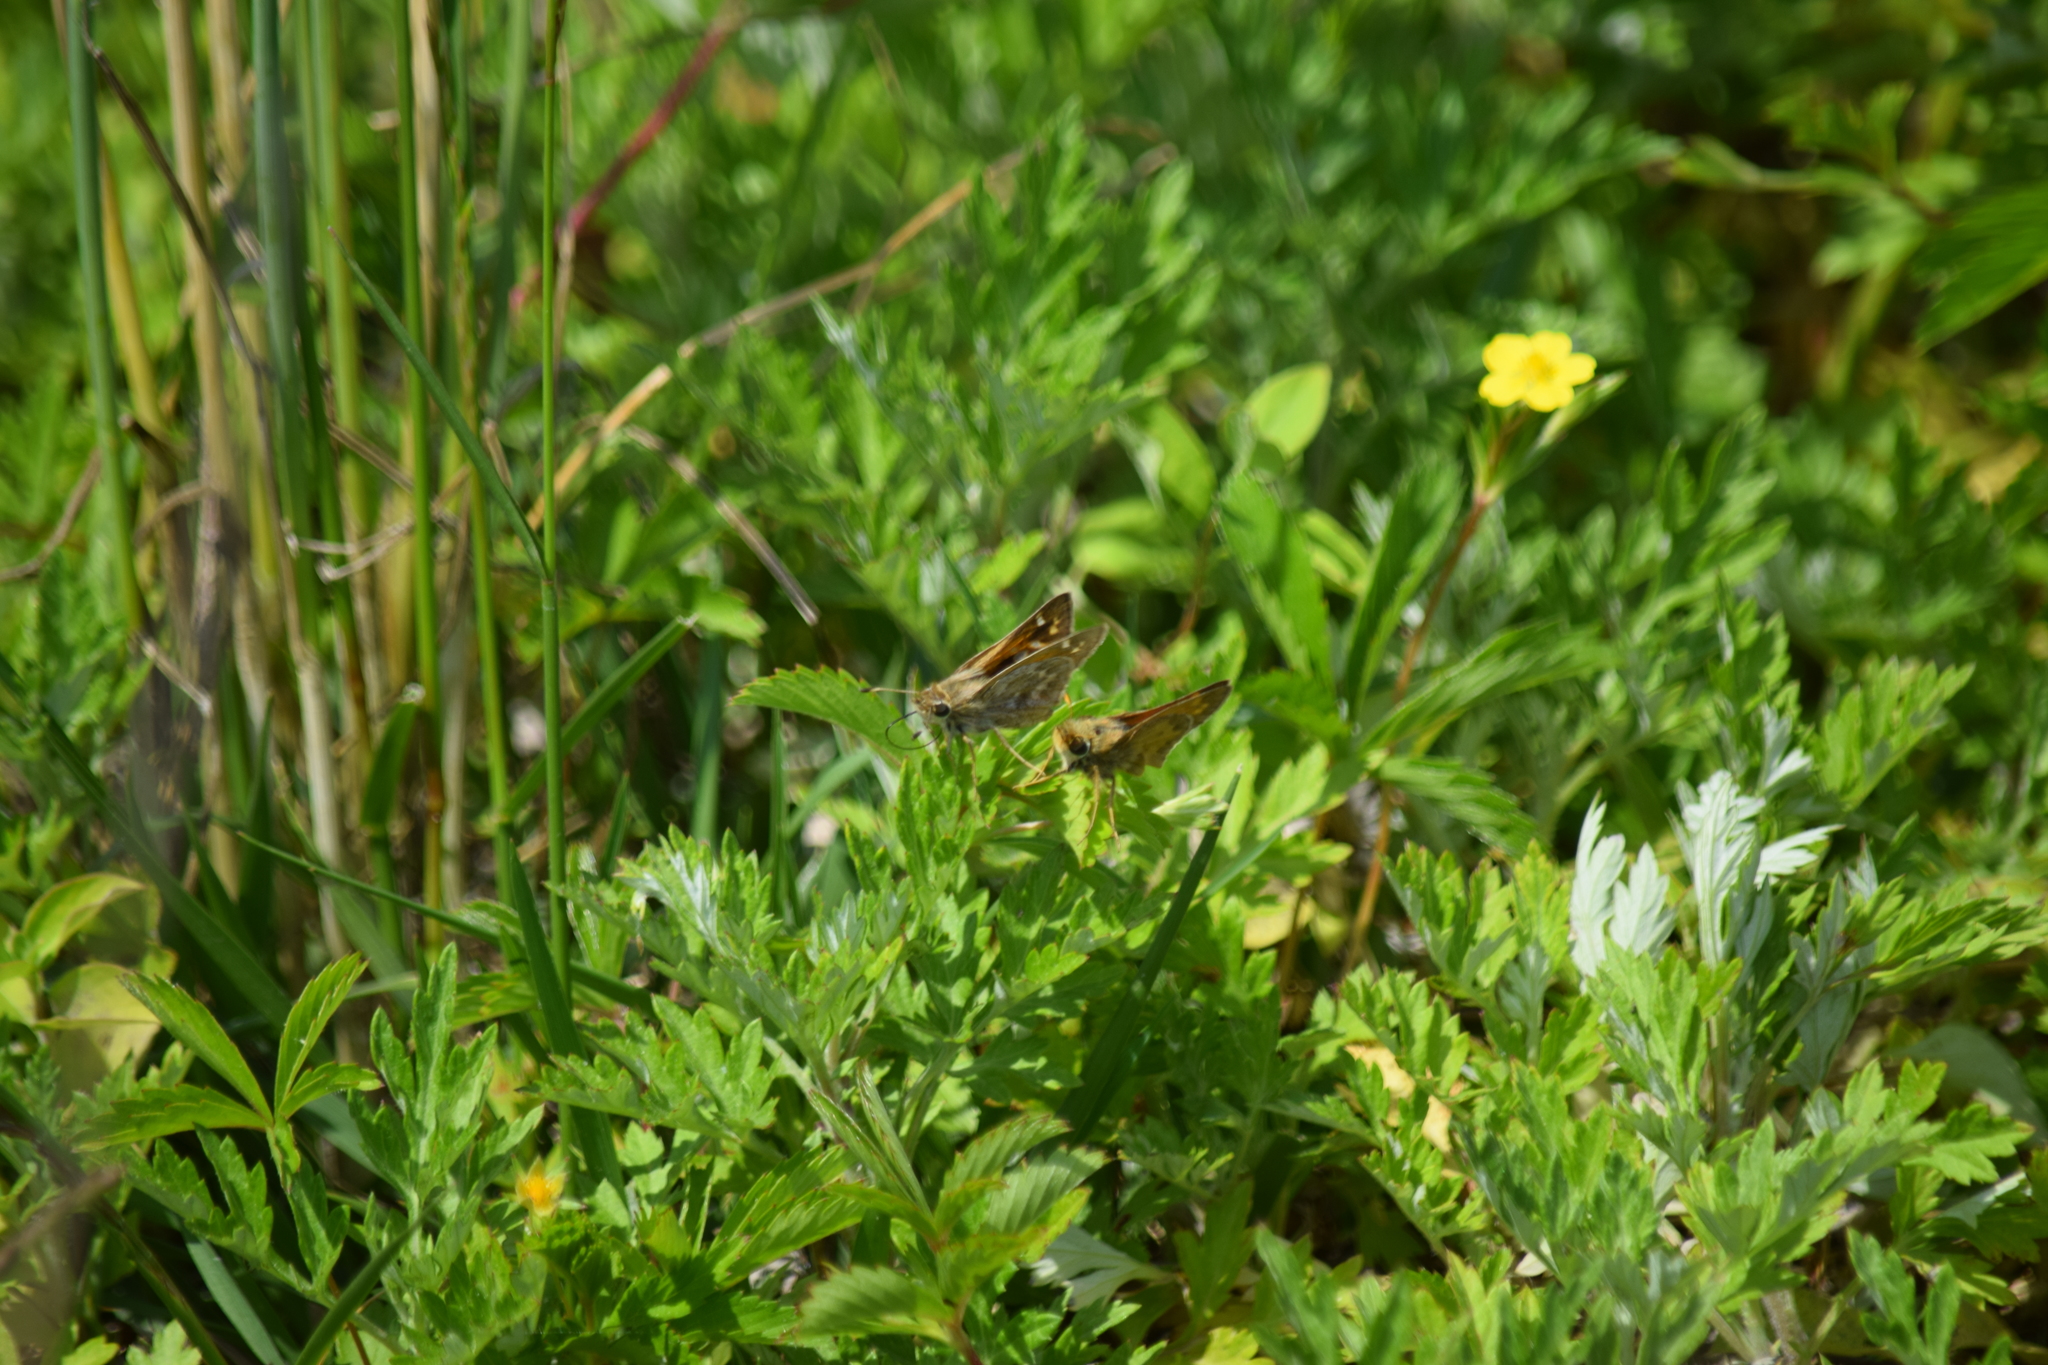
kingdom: Animalia
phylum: Arthropoda
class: Insecta
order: Lepidoptera
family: Hesperiidae
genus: Atalopedes
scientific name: Atalopedes
